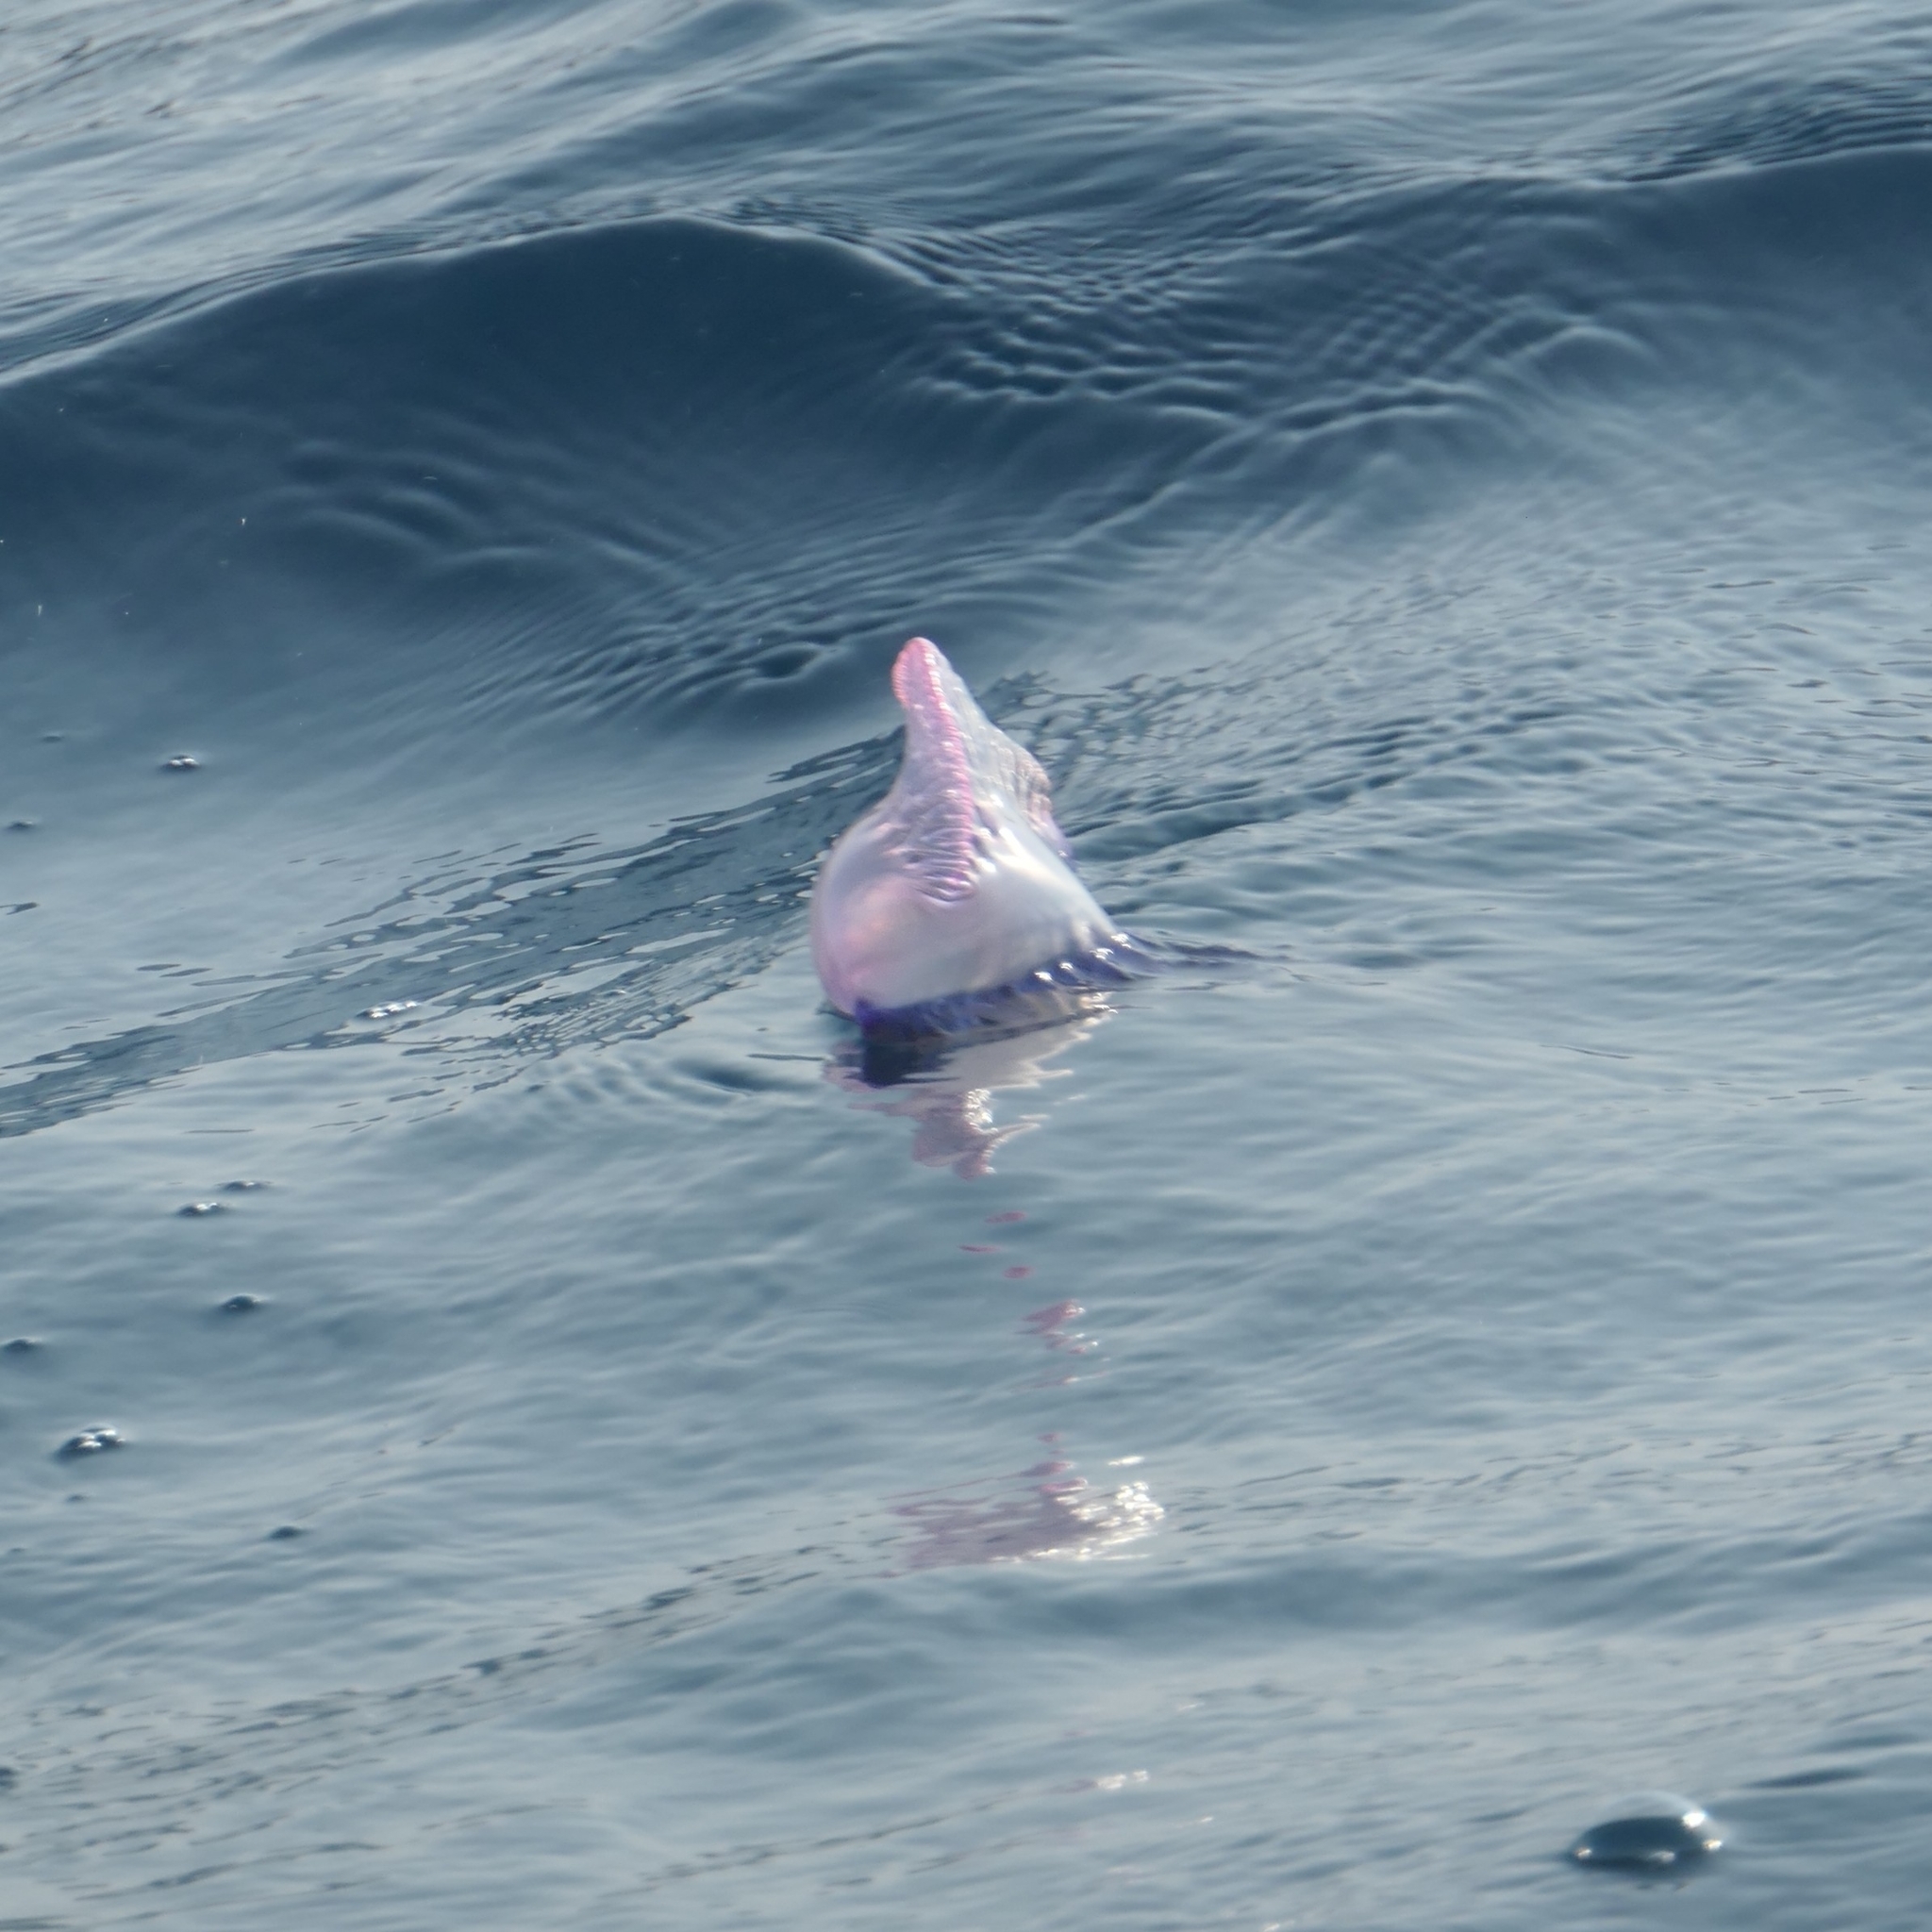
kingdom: Animalia
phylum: Cnidaria
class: Hydrozoa
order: Siphonophorae
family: Physaliidae
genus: Physalia
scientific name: Physalia physalis
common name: Portuguese man-of-war
